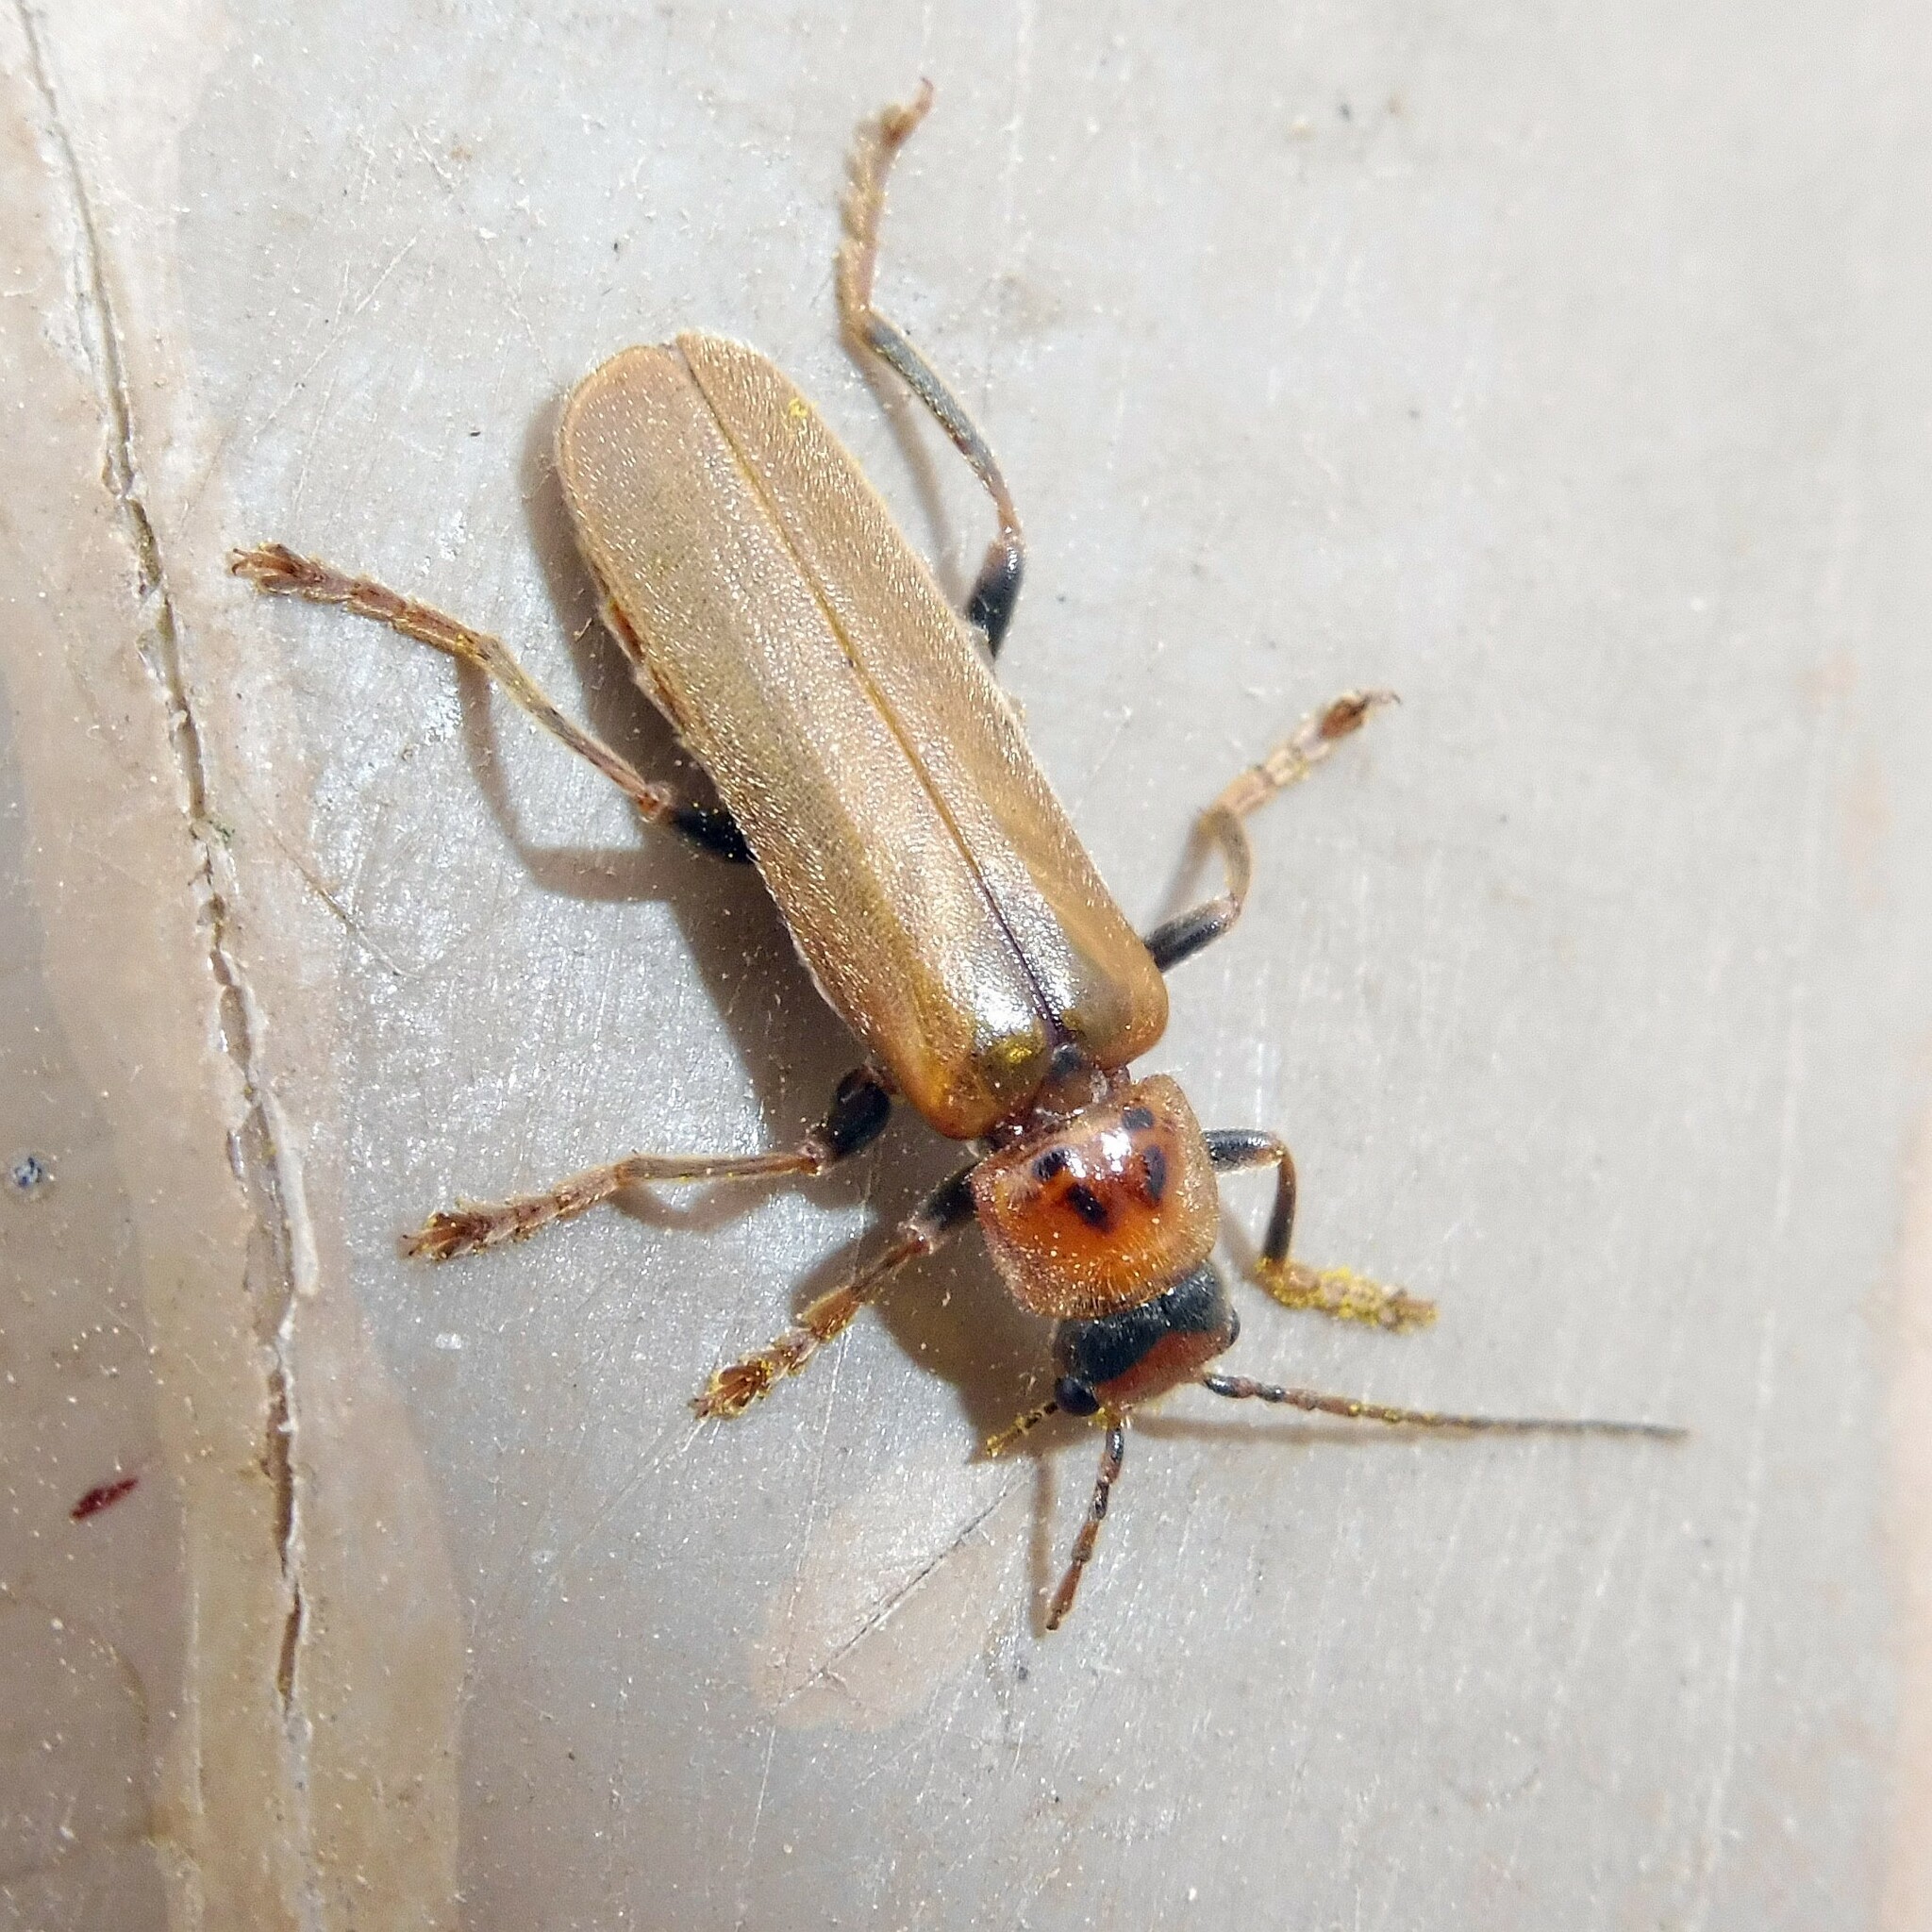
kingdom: Animalia
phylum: Arthropoda
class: Insecta
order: Coleoptera
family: Cantharidae
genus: Cantharis
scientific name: Cantharis rufa
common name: Red-spotted soldier beetle
